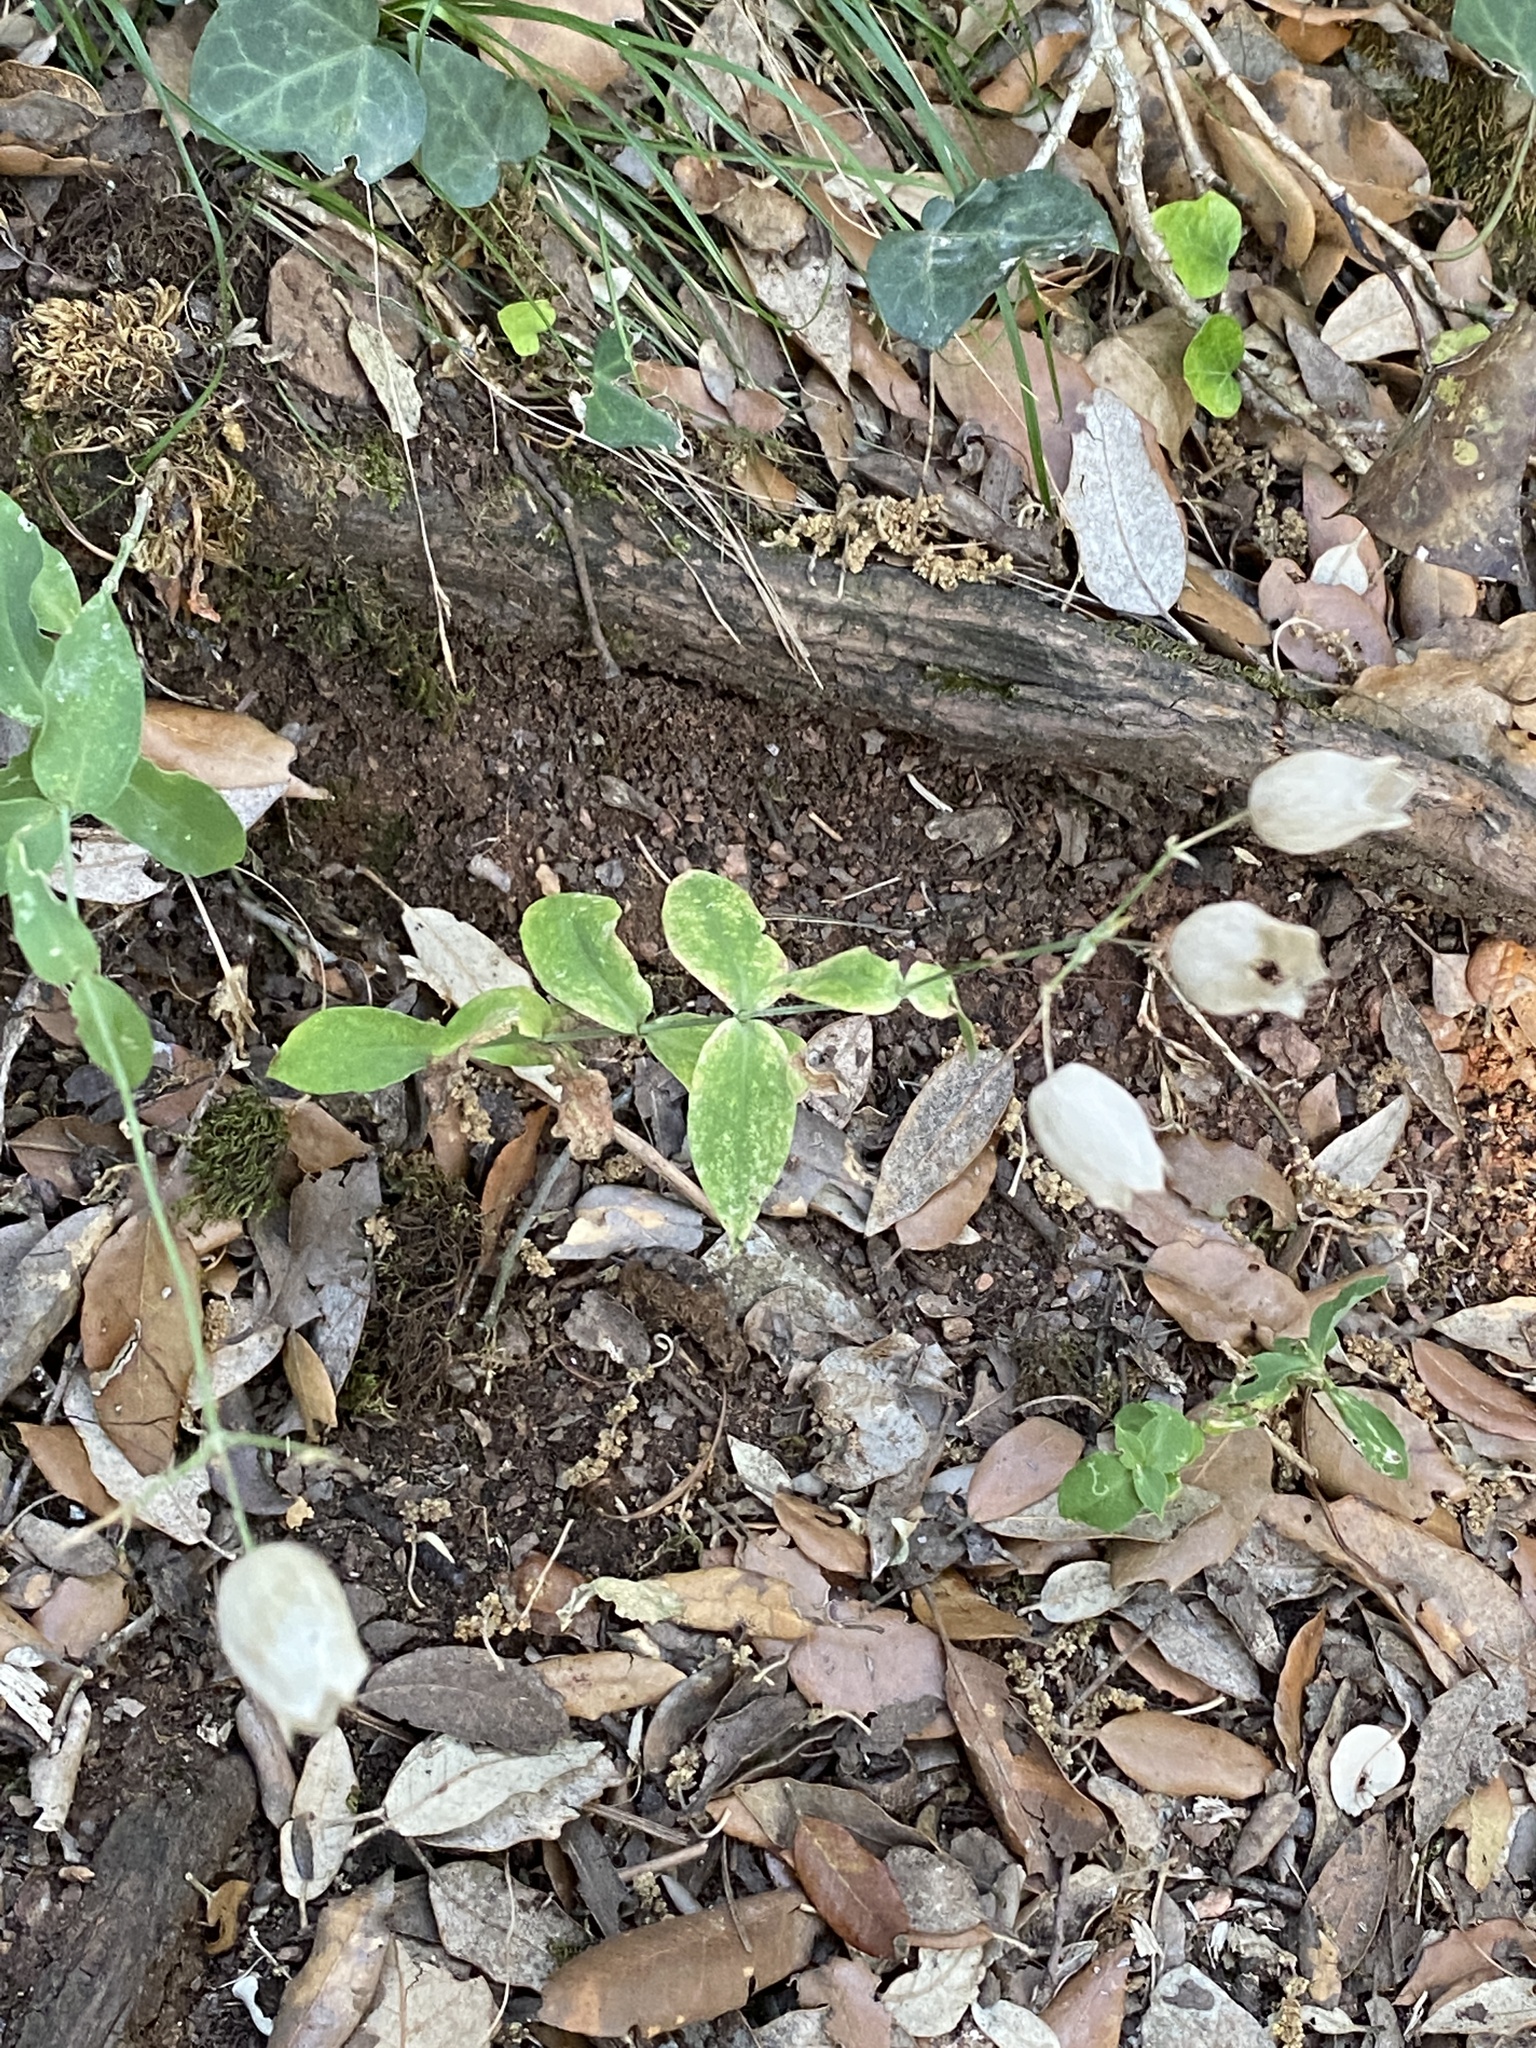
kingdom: Plantae
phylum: Tracheophyta
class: Magnoliopsida
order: Caryophyllales
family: Caryophyllaceae
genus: Silene
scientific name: Silene vulgaris
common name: Bladder campion
